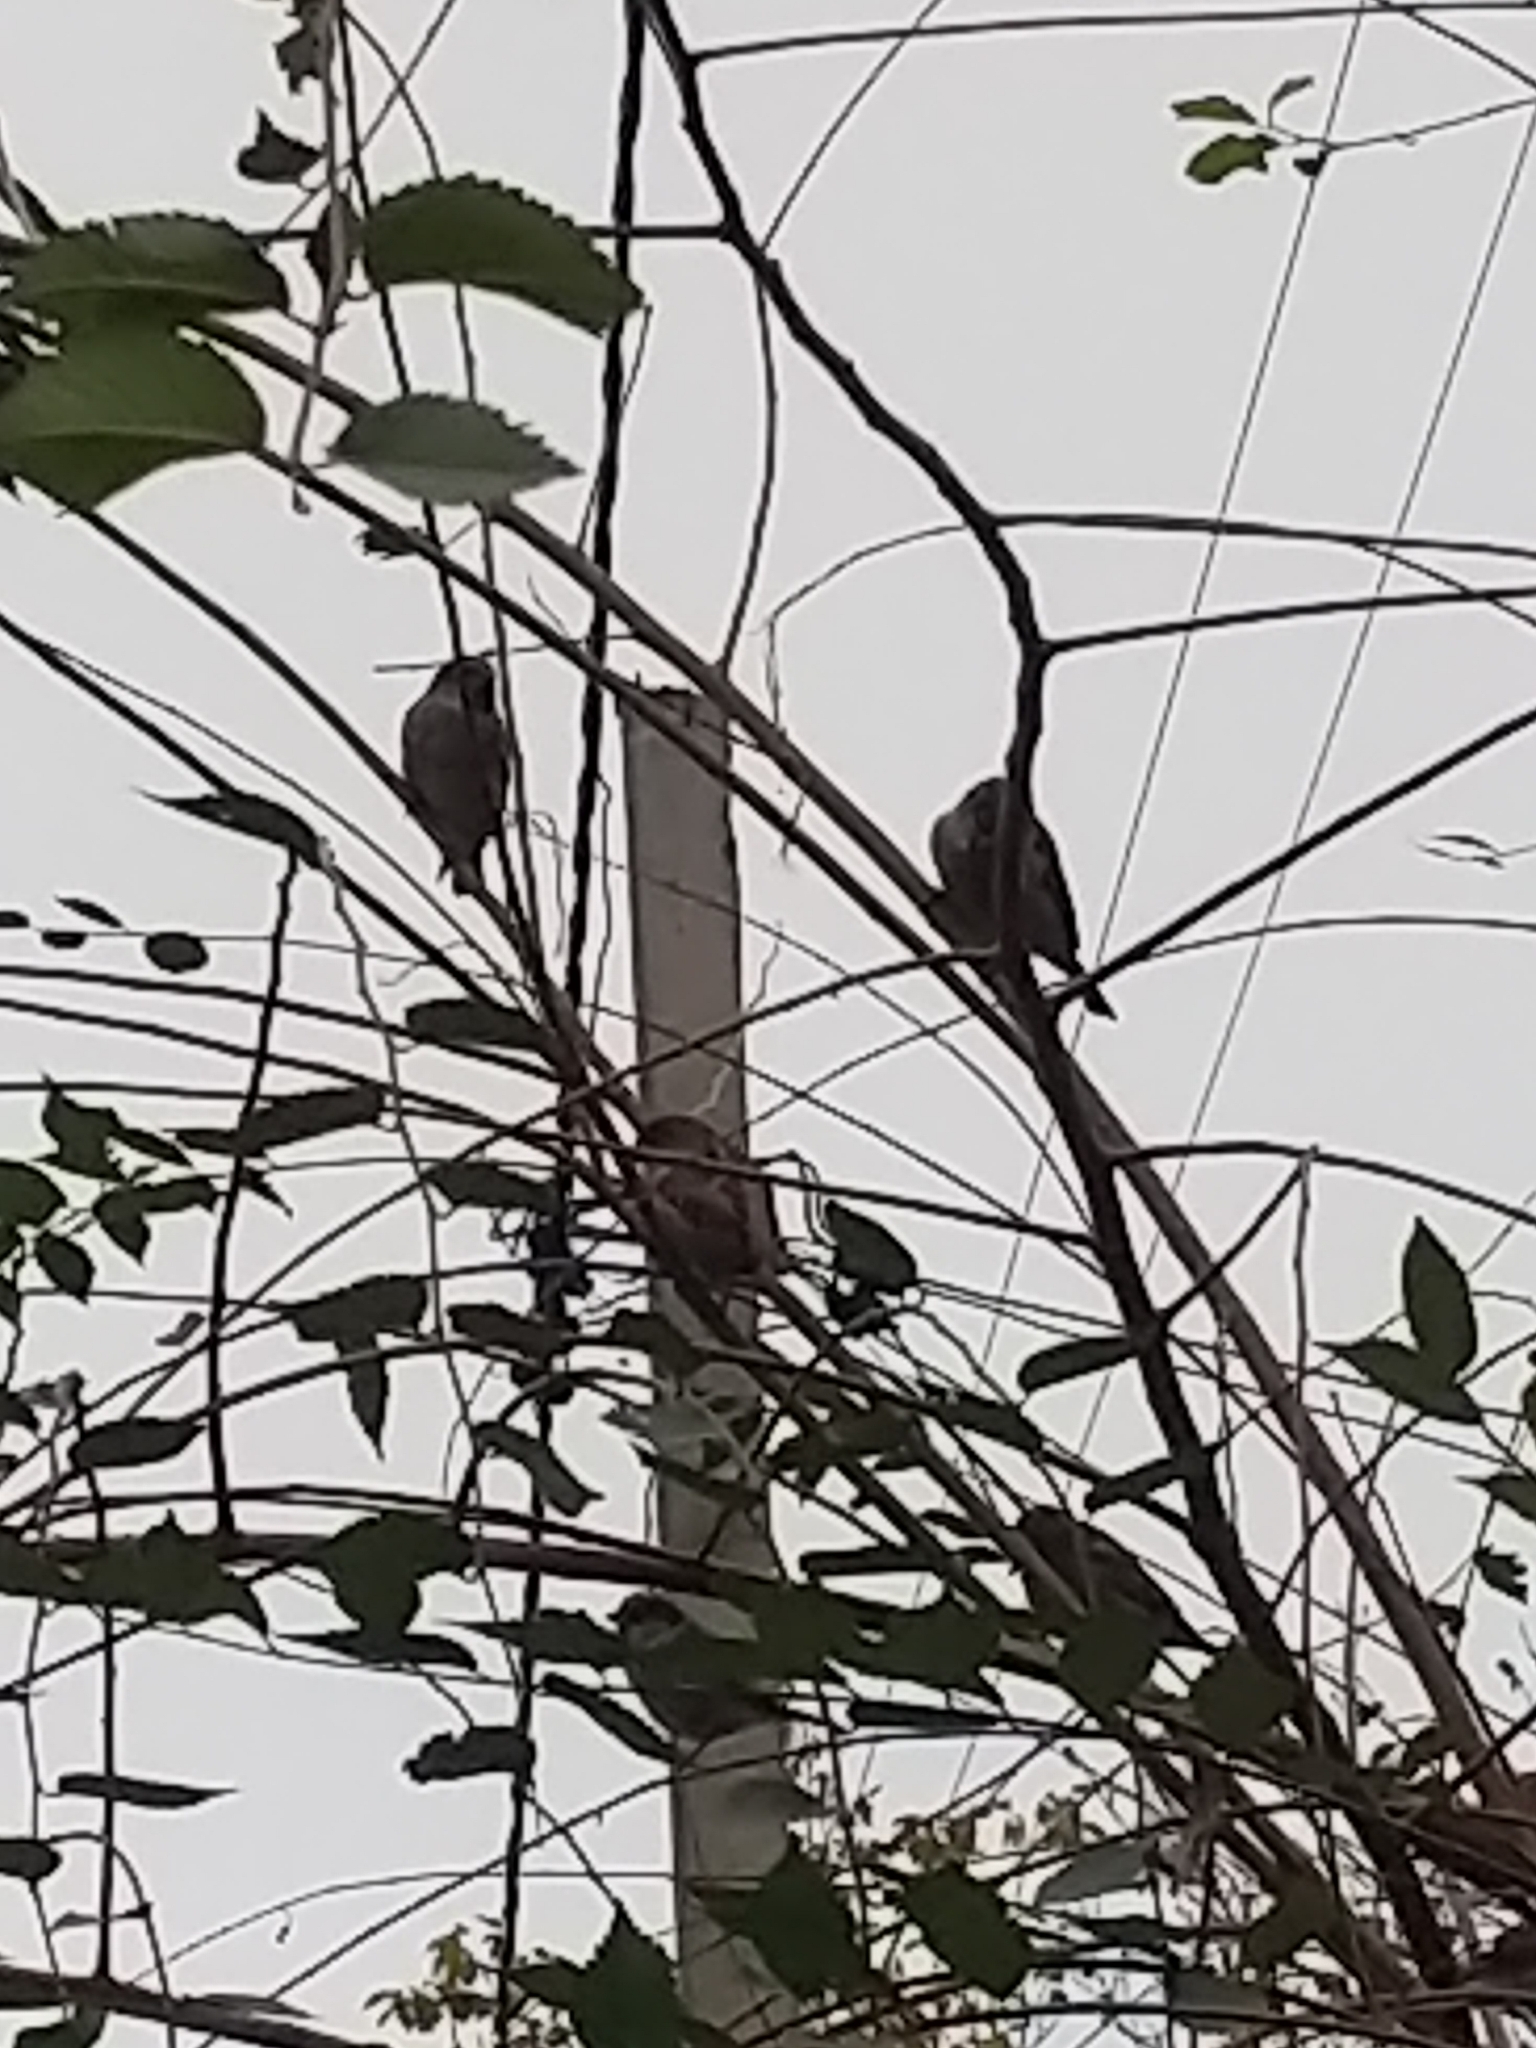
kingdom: Animalia
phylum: Chordata
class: Aves
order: Passeriformes
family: Passeridae
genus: Passer
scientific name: Passer domesticus
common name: House sparrow
